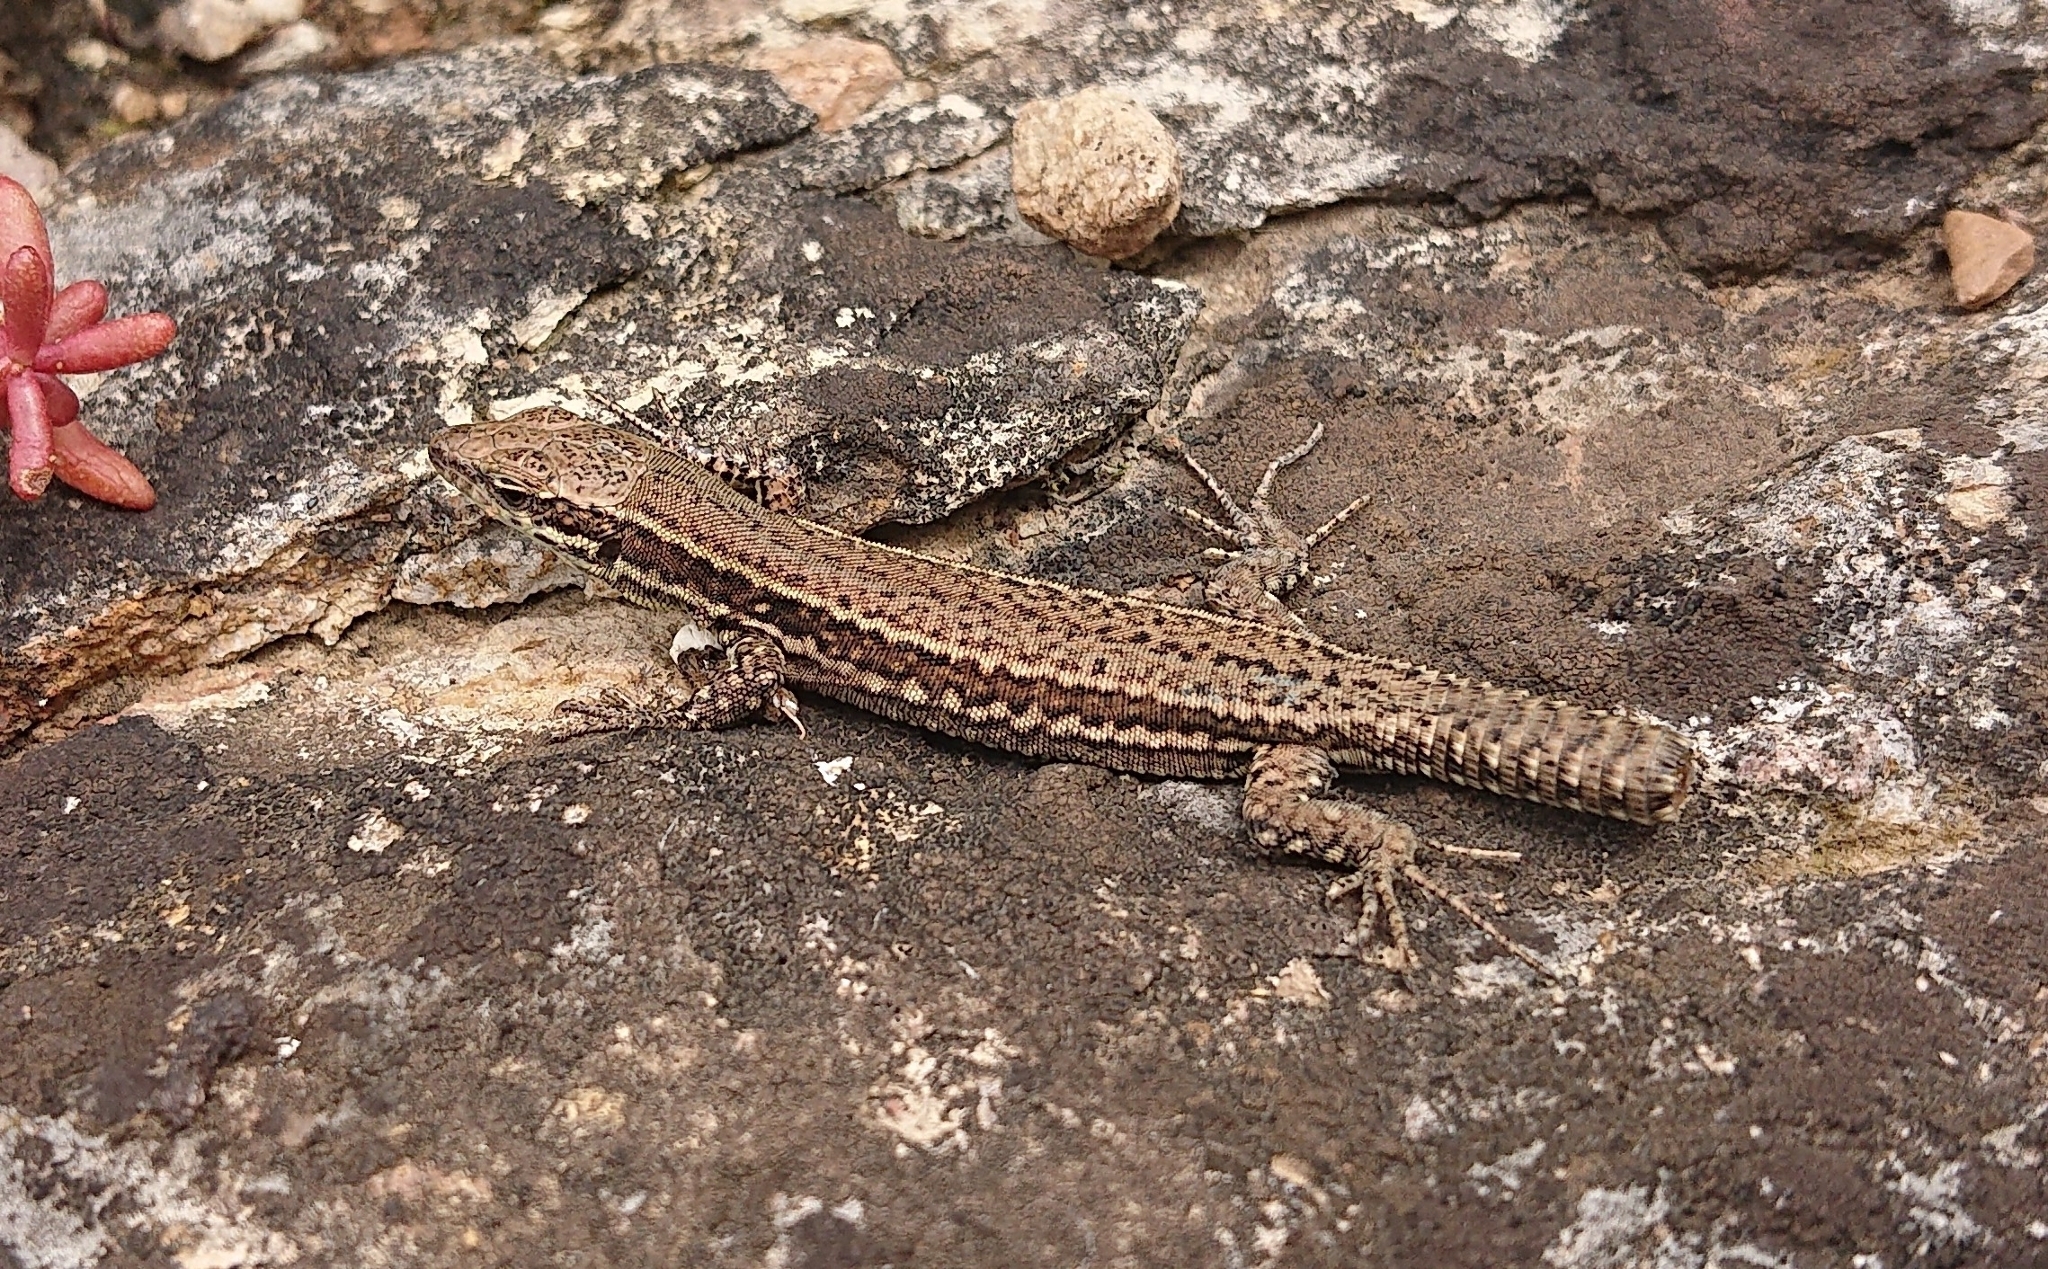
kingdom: Animalia
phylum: Chordata
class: Squamata
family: Lacertidae
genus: Podarcis
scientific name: Podarcis muralis
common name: Common wall lizard
